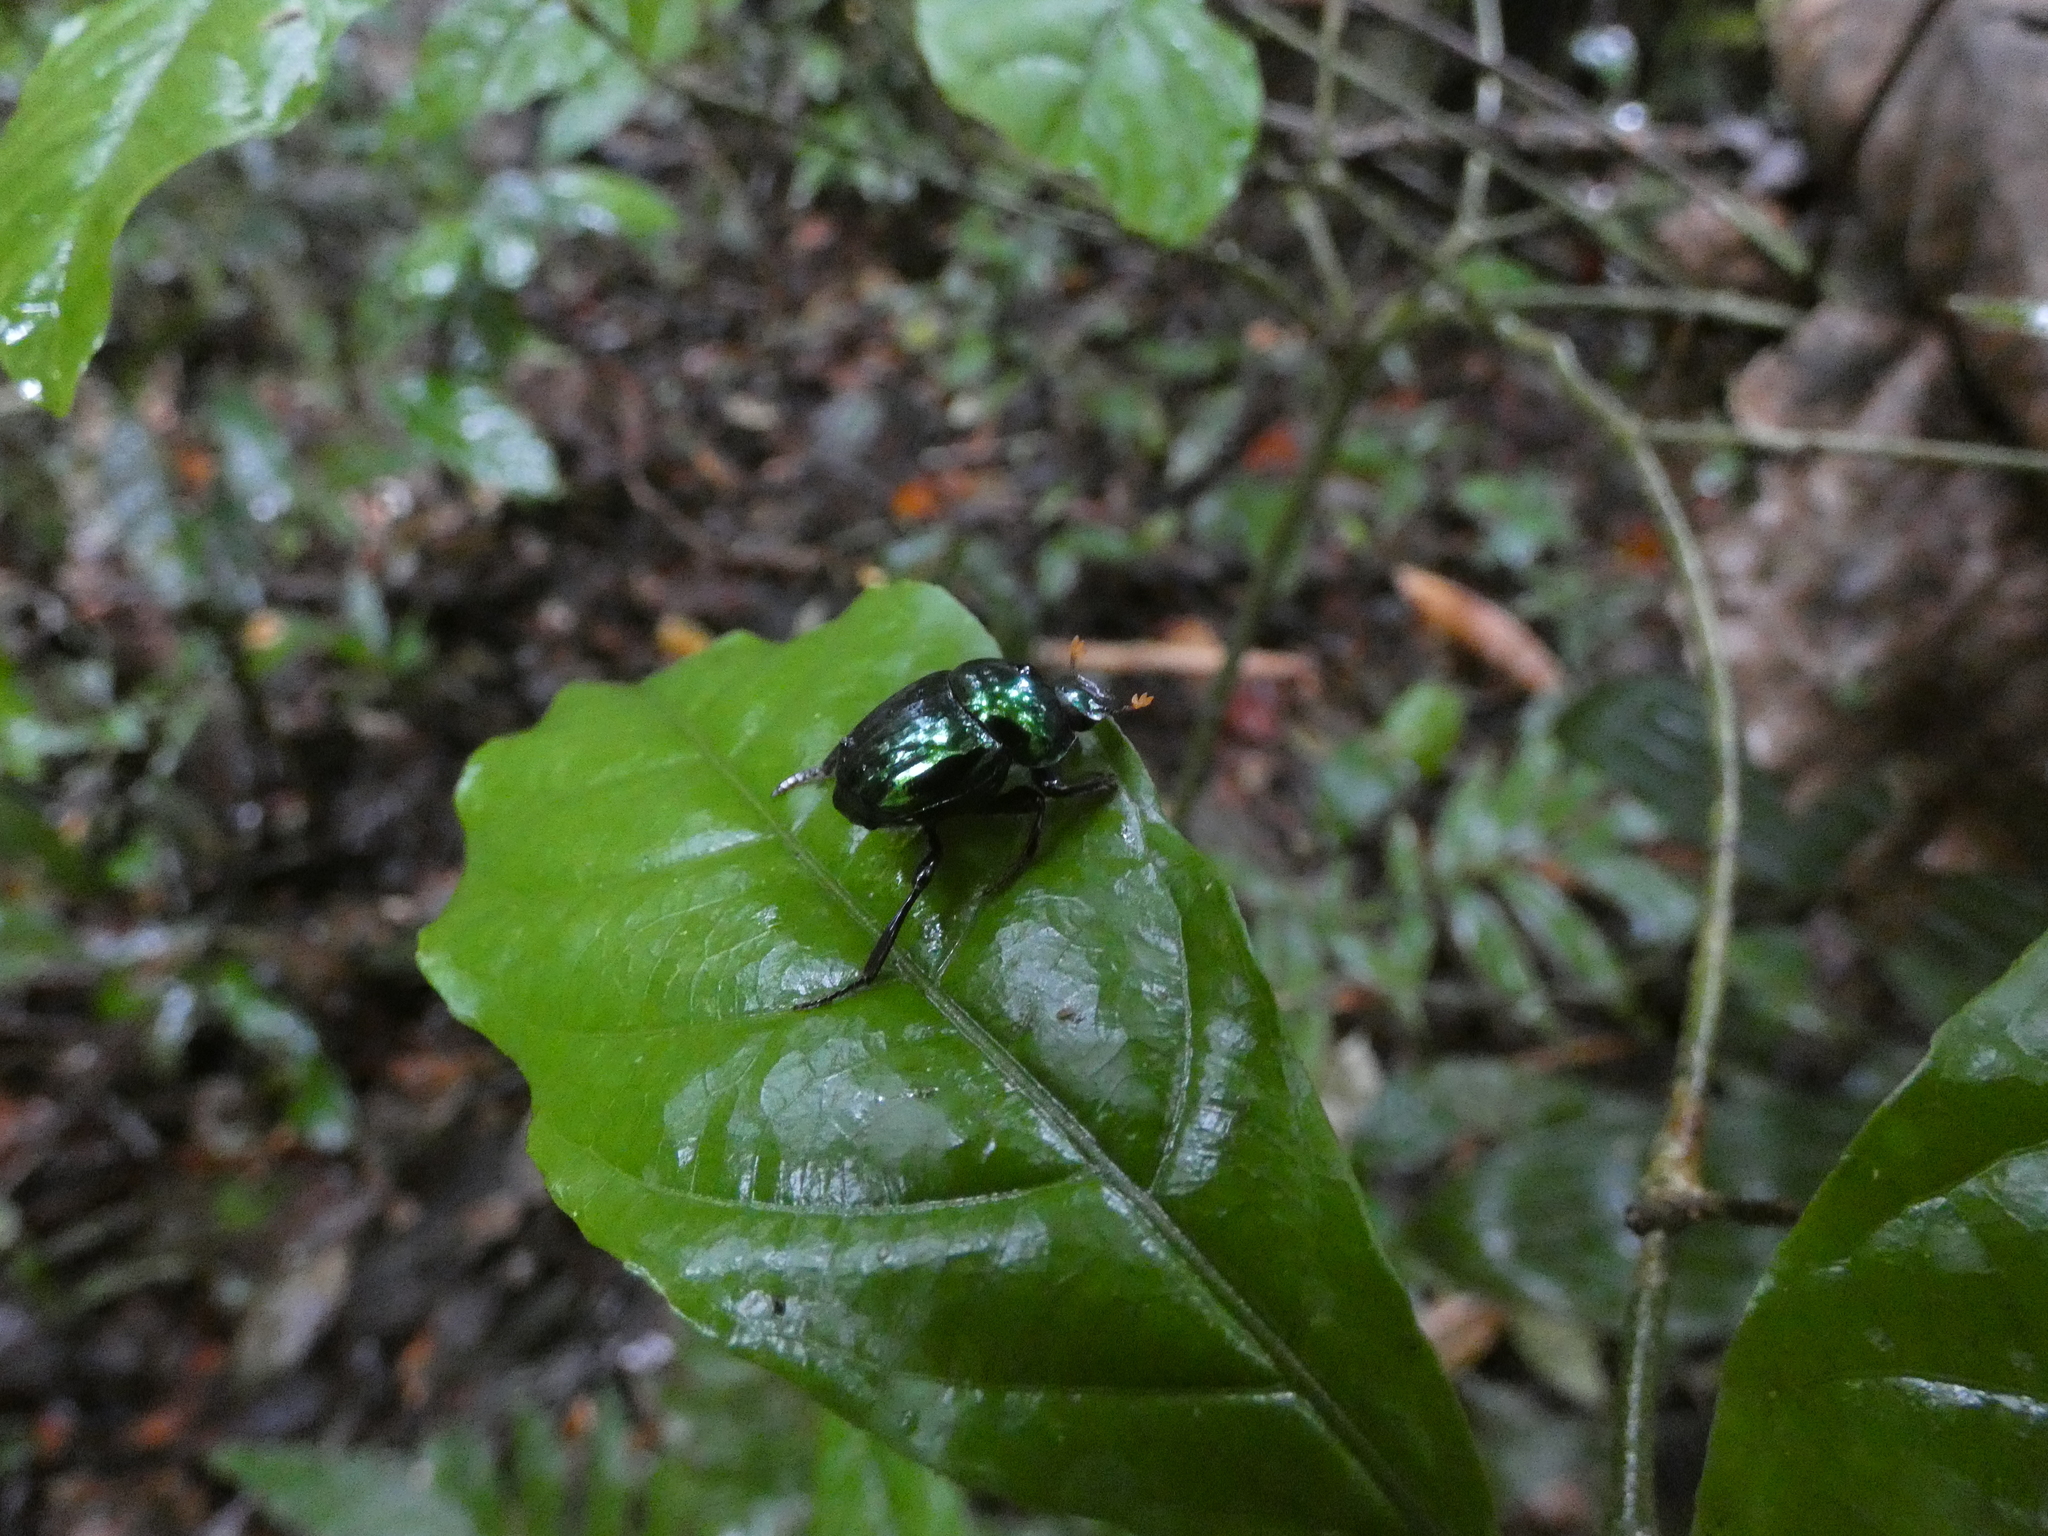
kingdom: Animalia
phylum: Arthropoda
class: Insecta
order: Coleoptera
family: Scarabaeidae
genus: Canthon
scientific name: Canthon fulgidus
